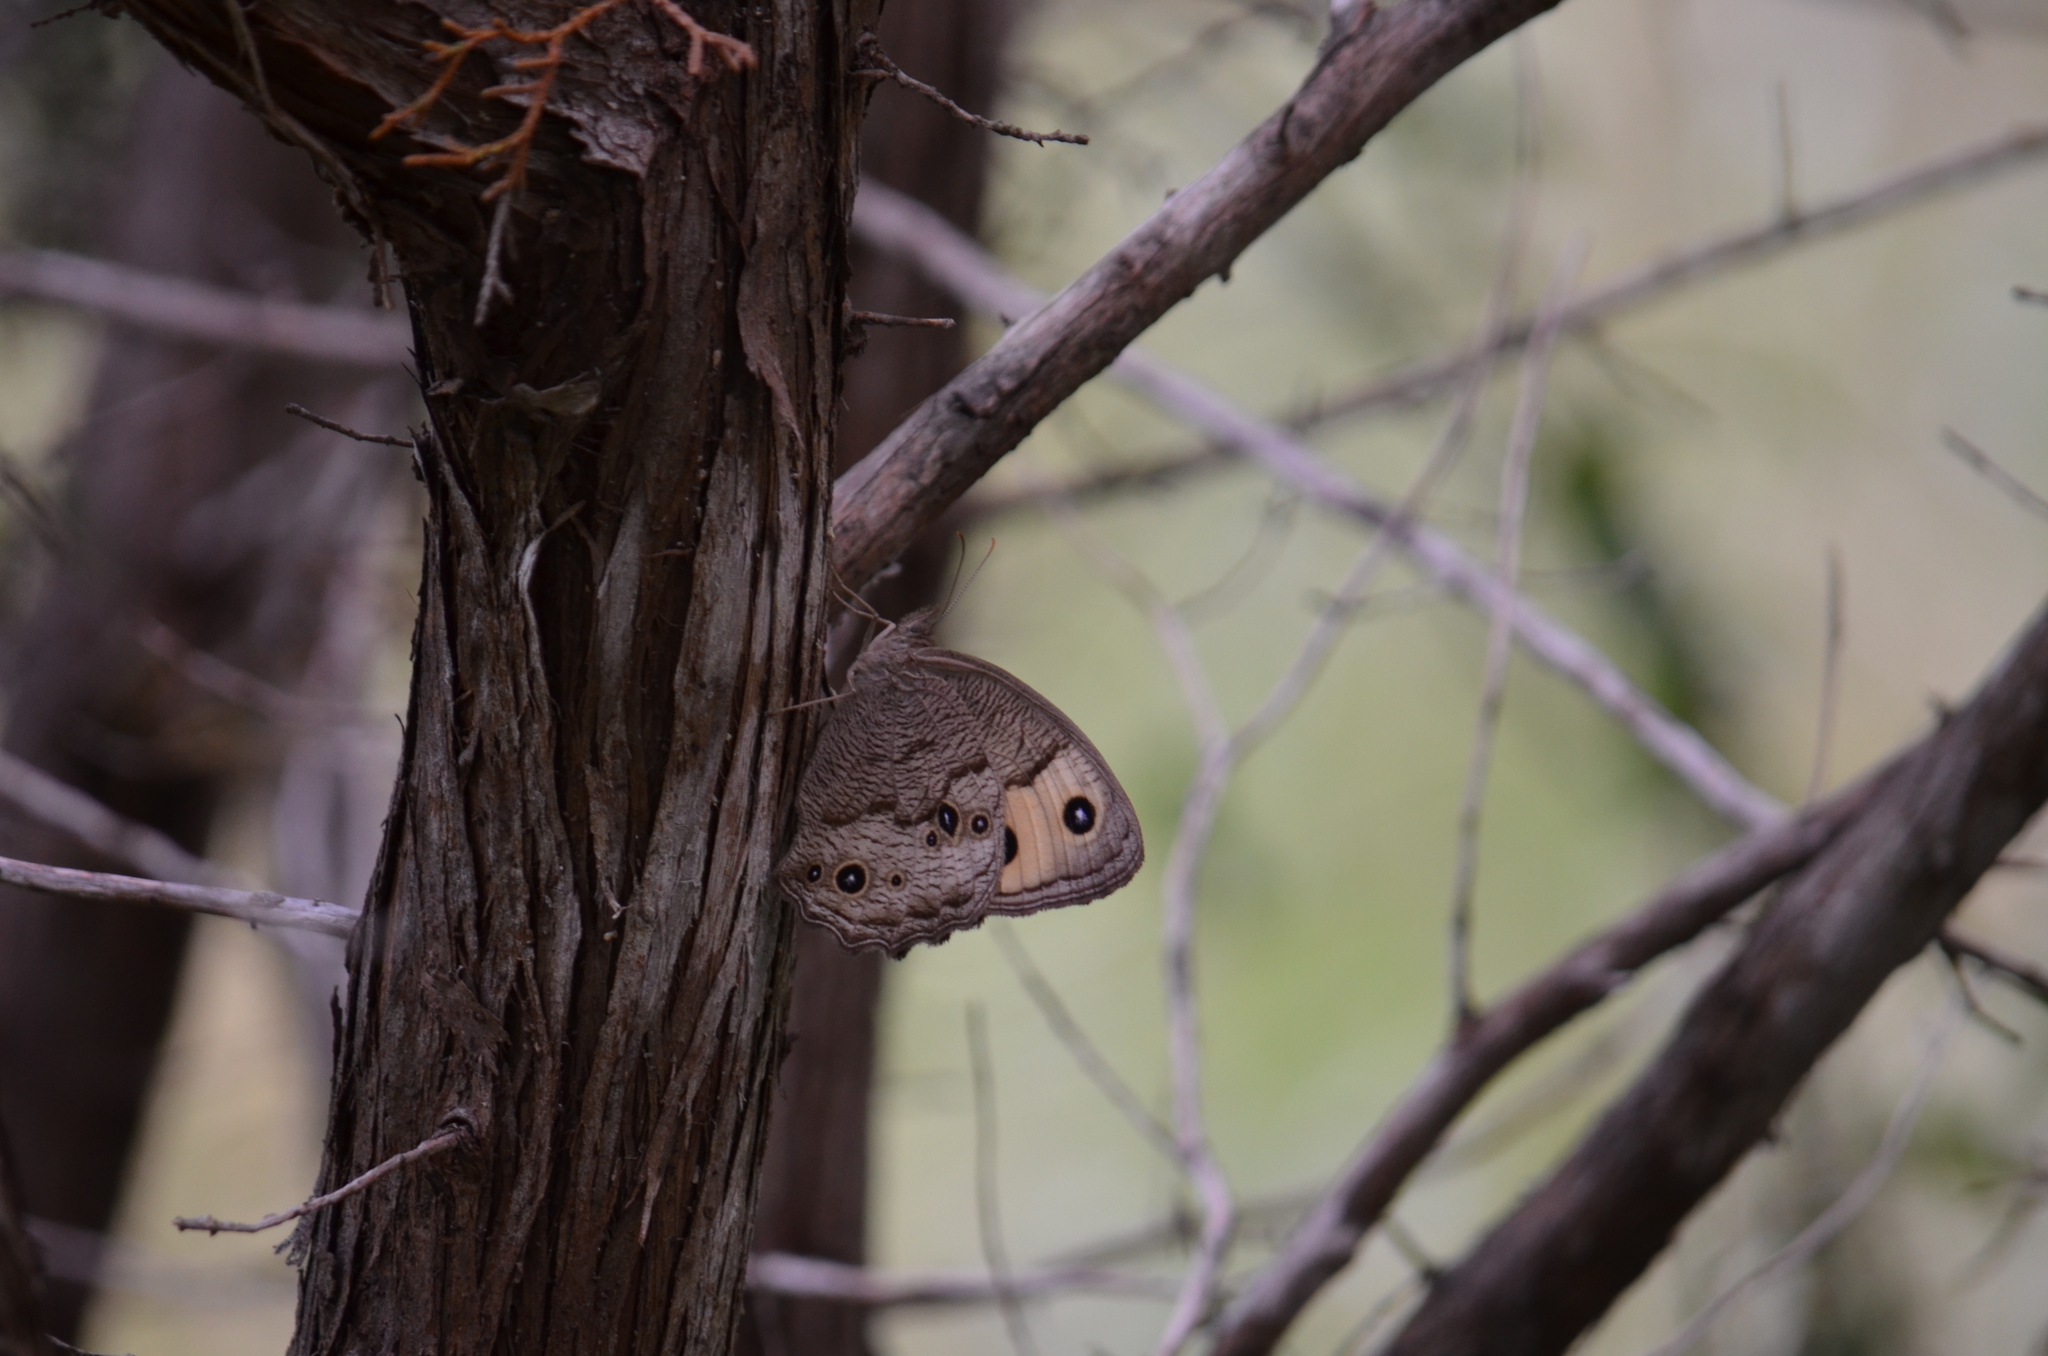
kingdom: Animalia
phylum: Arthropoda
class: Insecta
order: Lepidoptera
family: Nymphalidae
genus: Cercyonis
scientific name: Cercyonis pegala
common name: Common wood-nymph
